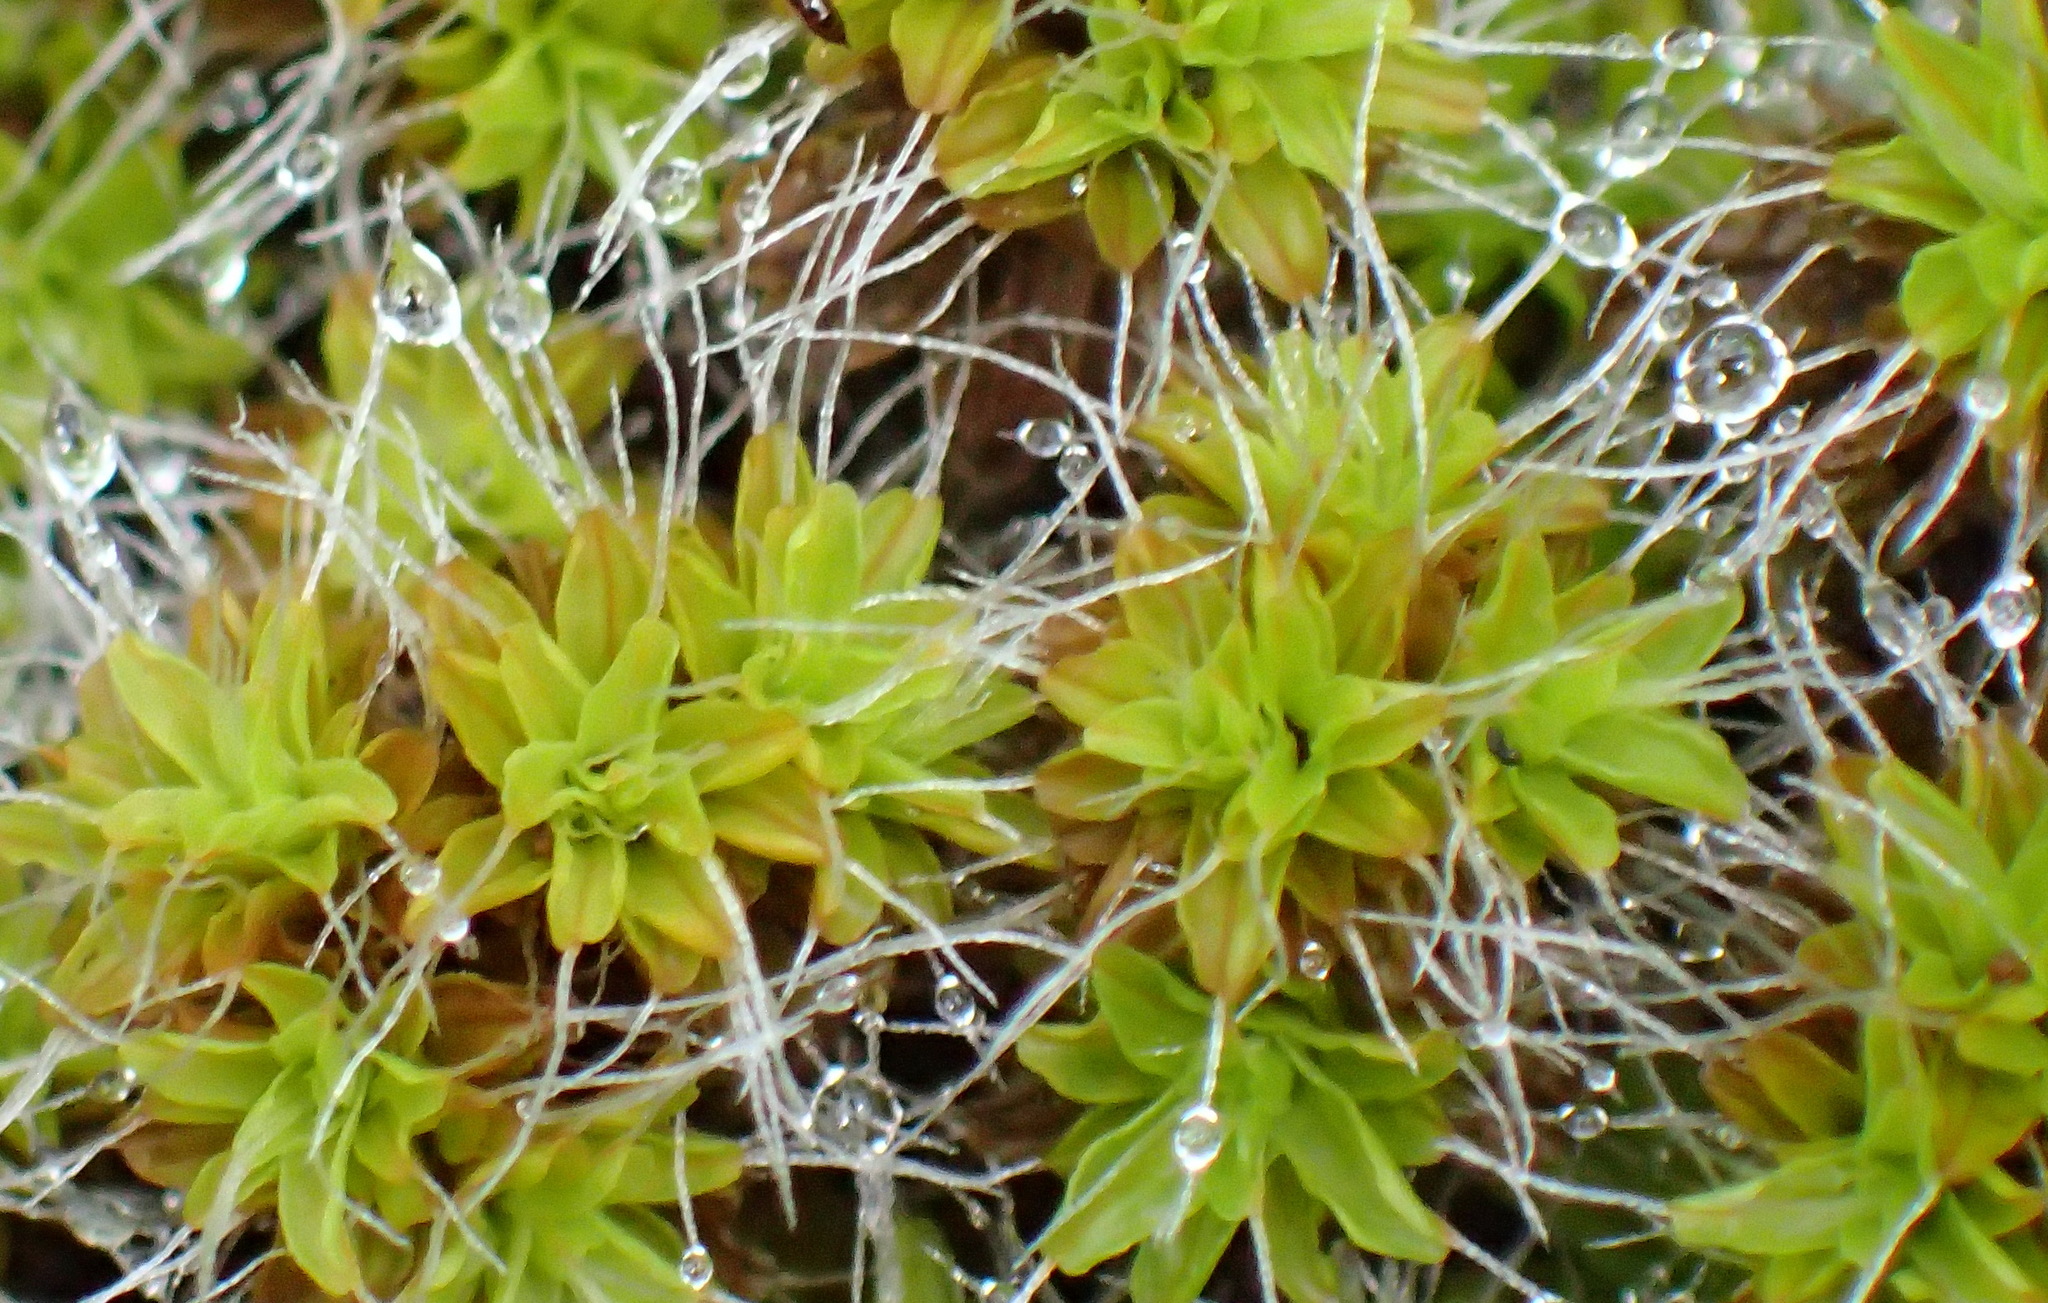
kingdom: Plantae
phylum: Bryophyta
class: Bryopsida
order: Pottiales
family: Pottiaceae
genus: Syntrichia
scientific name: Syntrichia ruralis
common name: Sidewalk screw moss
